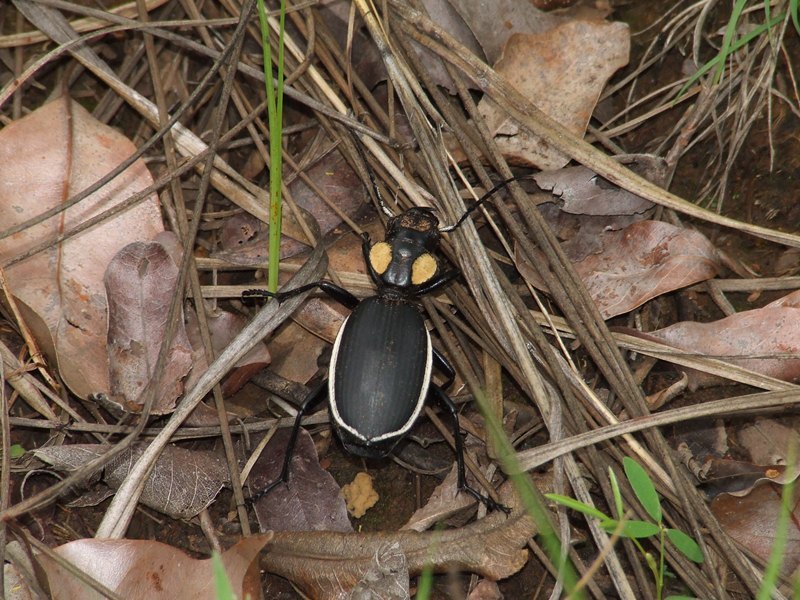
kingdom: Animalia
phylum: Arthropoda
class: Insecta
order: Coleoptera
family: Carabidae
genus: Anthia
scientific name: Anthia thoracica
